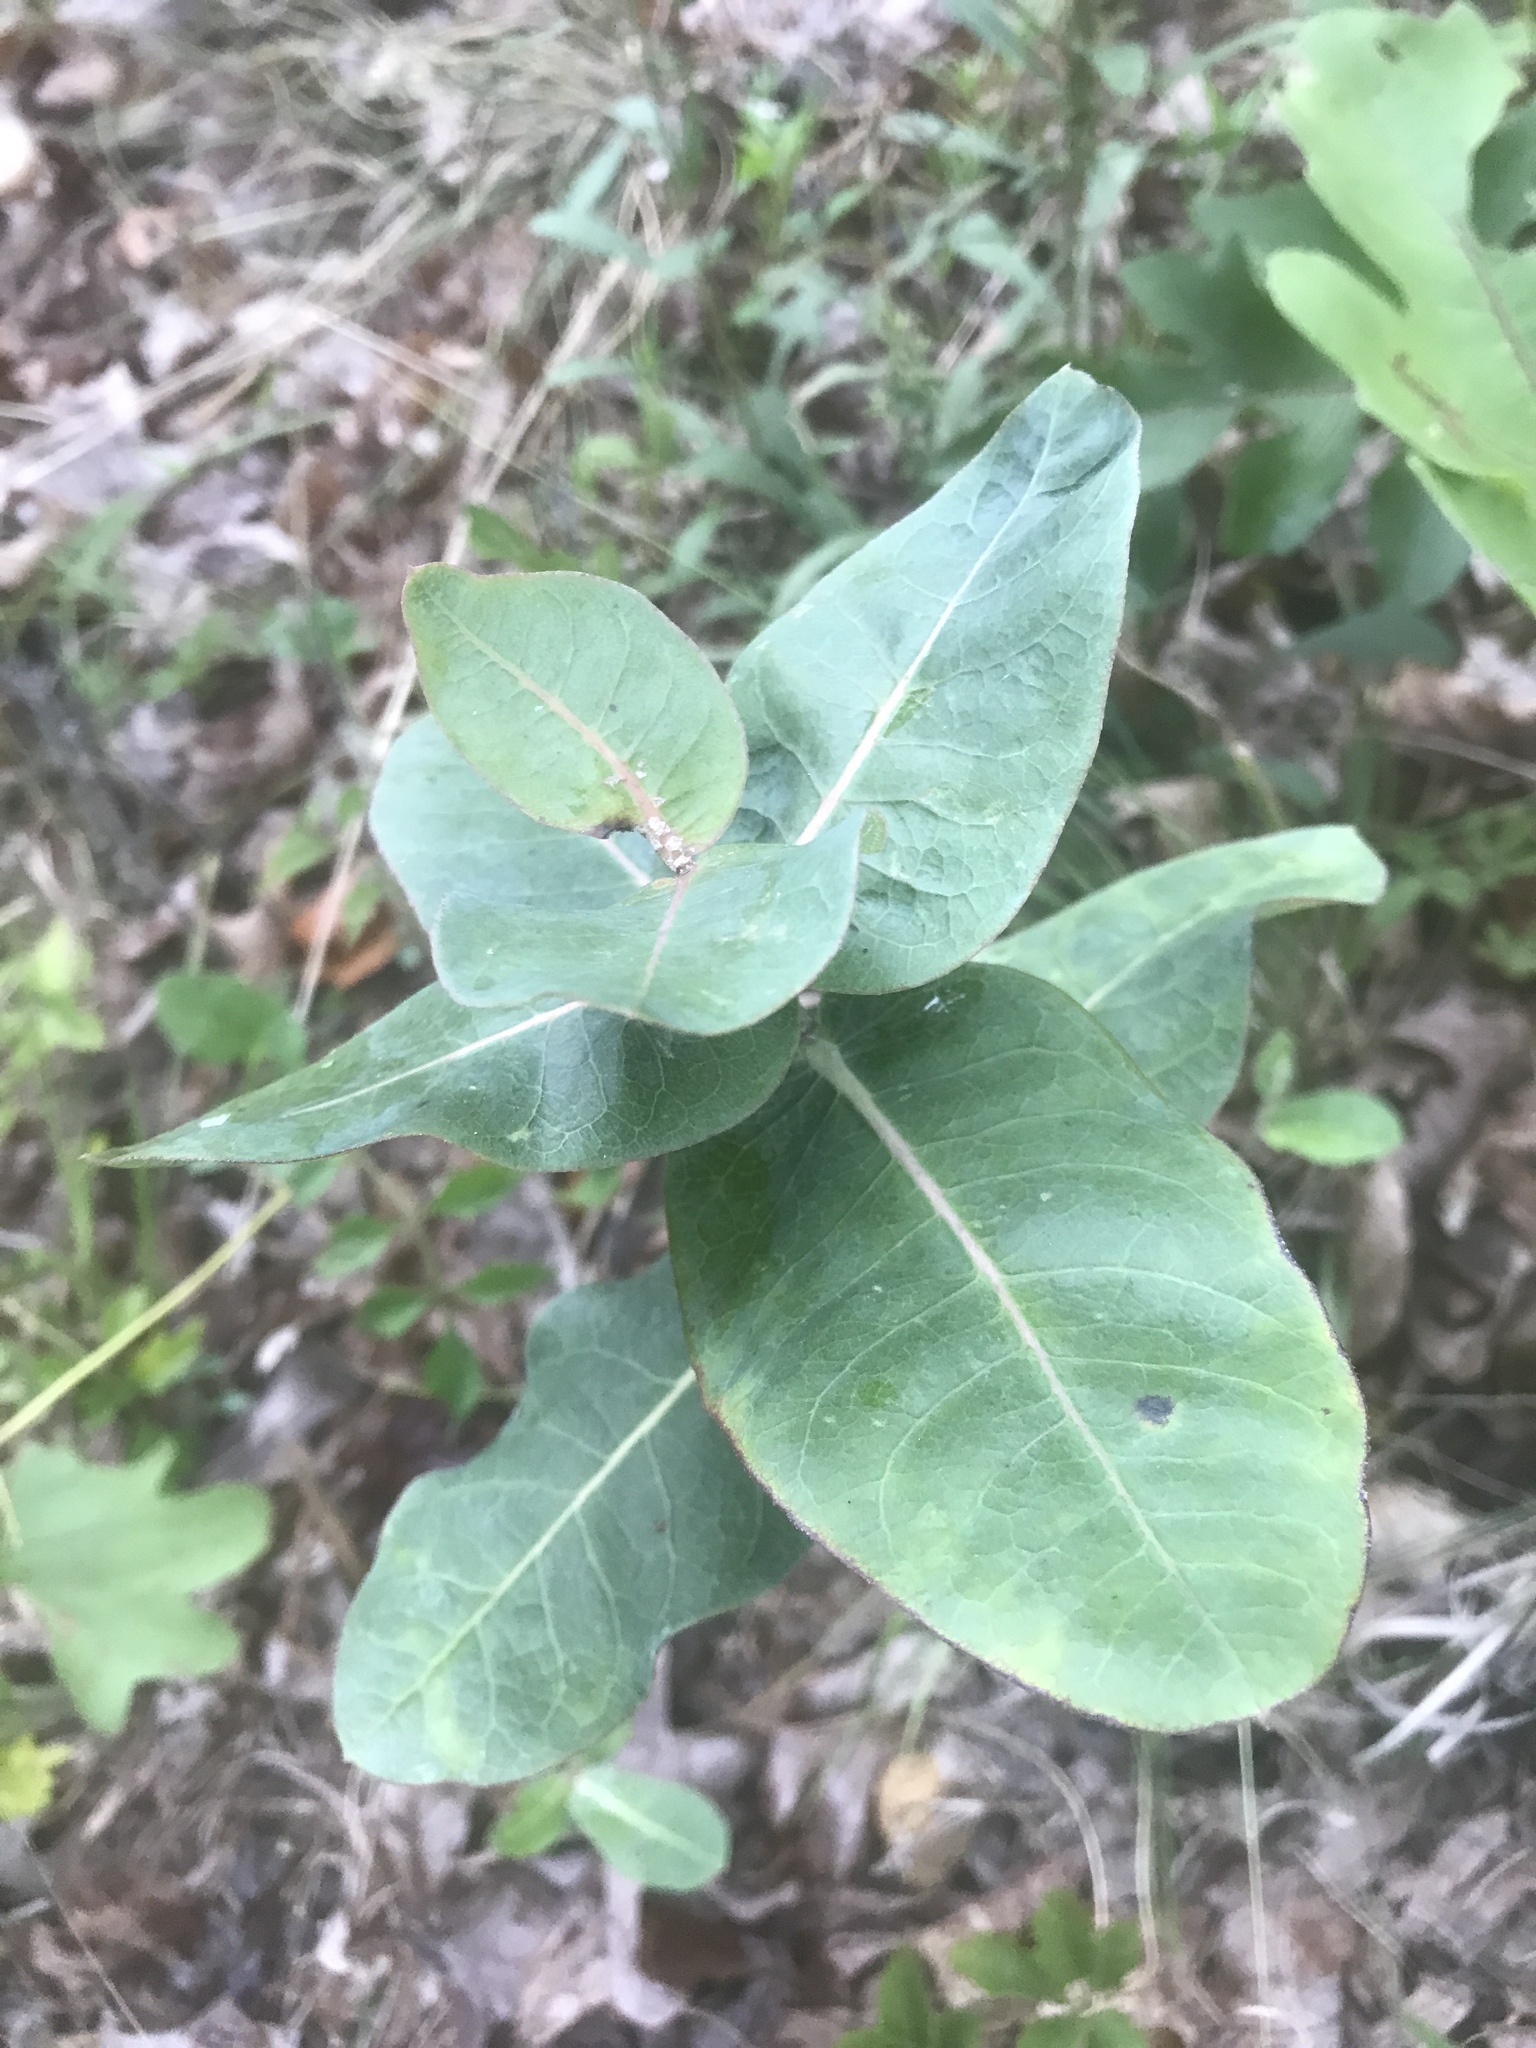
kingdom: Plantae
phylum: Tracheophyta
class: Magnoliopsida
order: Gentianales
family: Apocynaceae
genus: Asclepias
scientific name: Asclepias amplexicaulis
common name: Blunt-leaf milkweed
